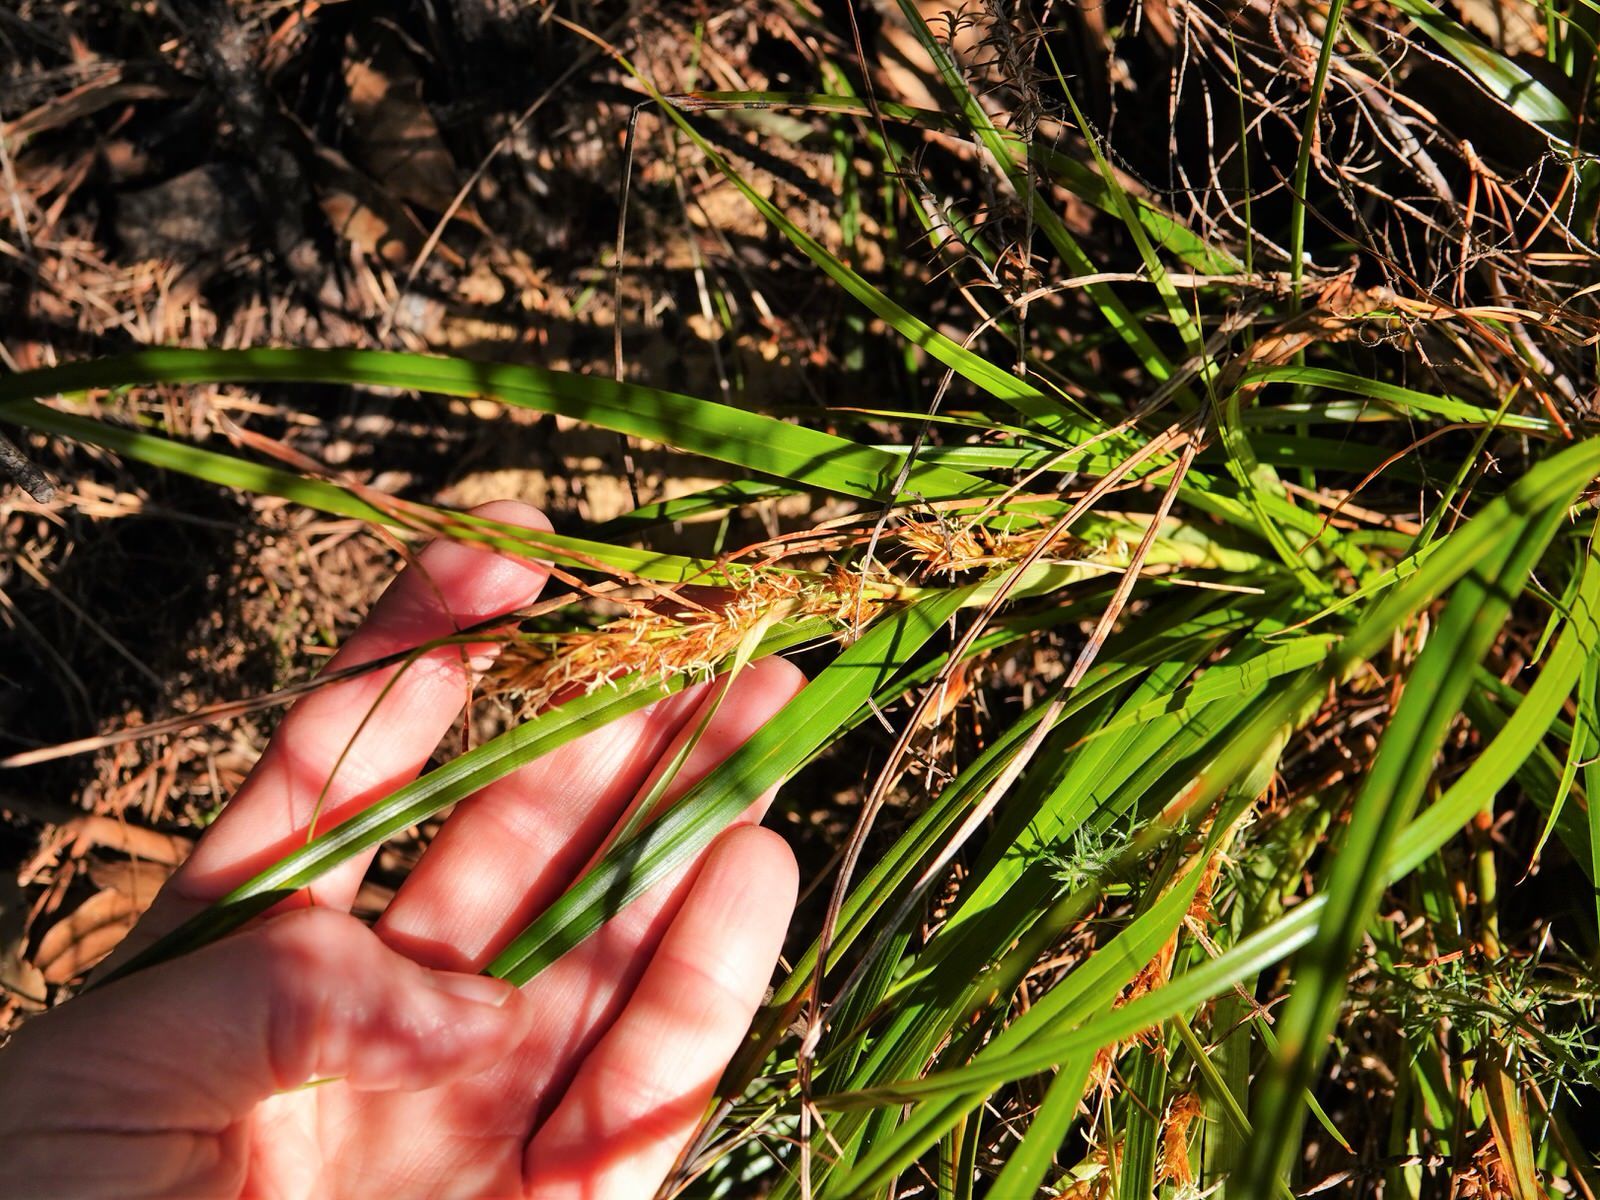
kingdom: Plantae
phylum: Tracheophyta
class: Liliopsida
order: Poales
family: Cyperaceae
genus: Morelotia
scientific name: Morelotia affinis
